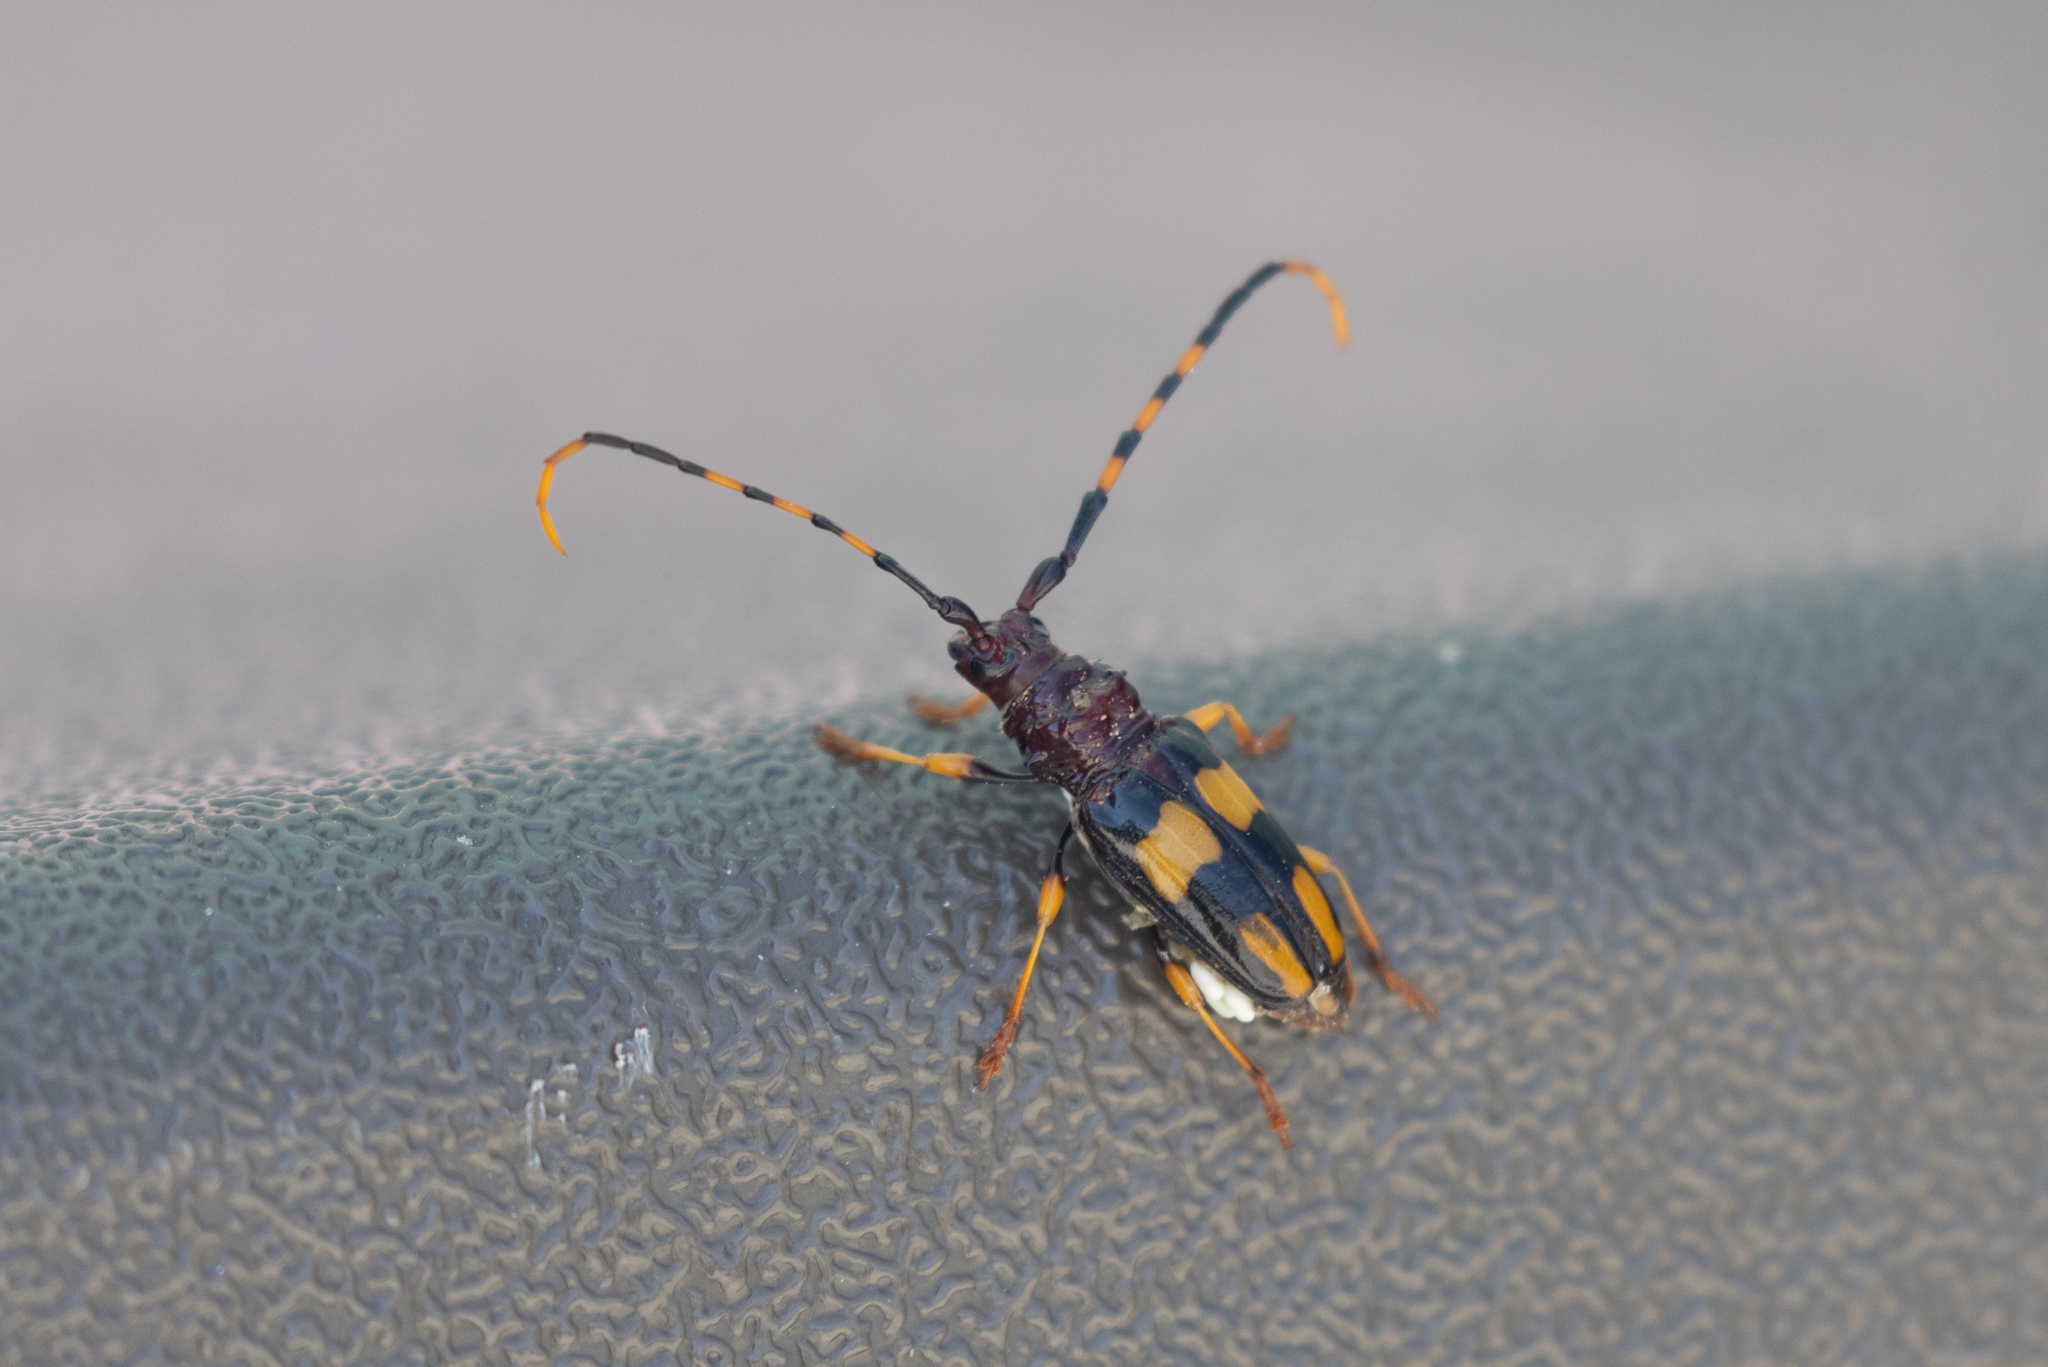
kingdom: Animalia
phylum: Arthropoda
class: Insecta
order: Coleoptera
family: Cerambycidae
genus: Trachyderes
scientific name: Trachyderes mandibularis
